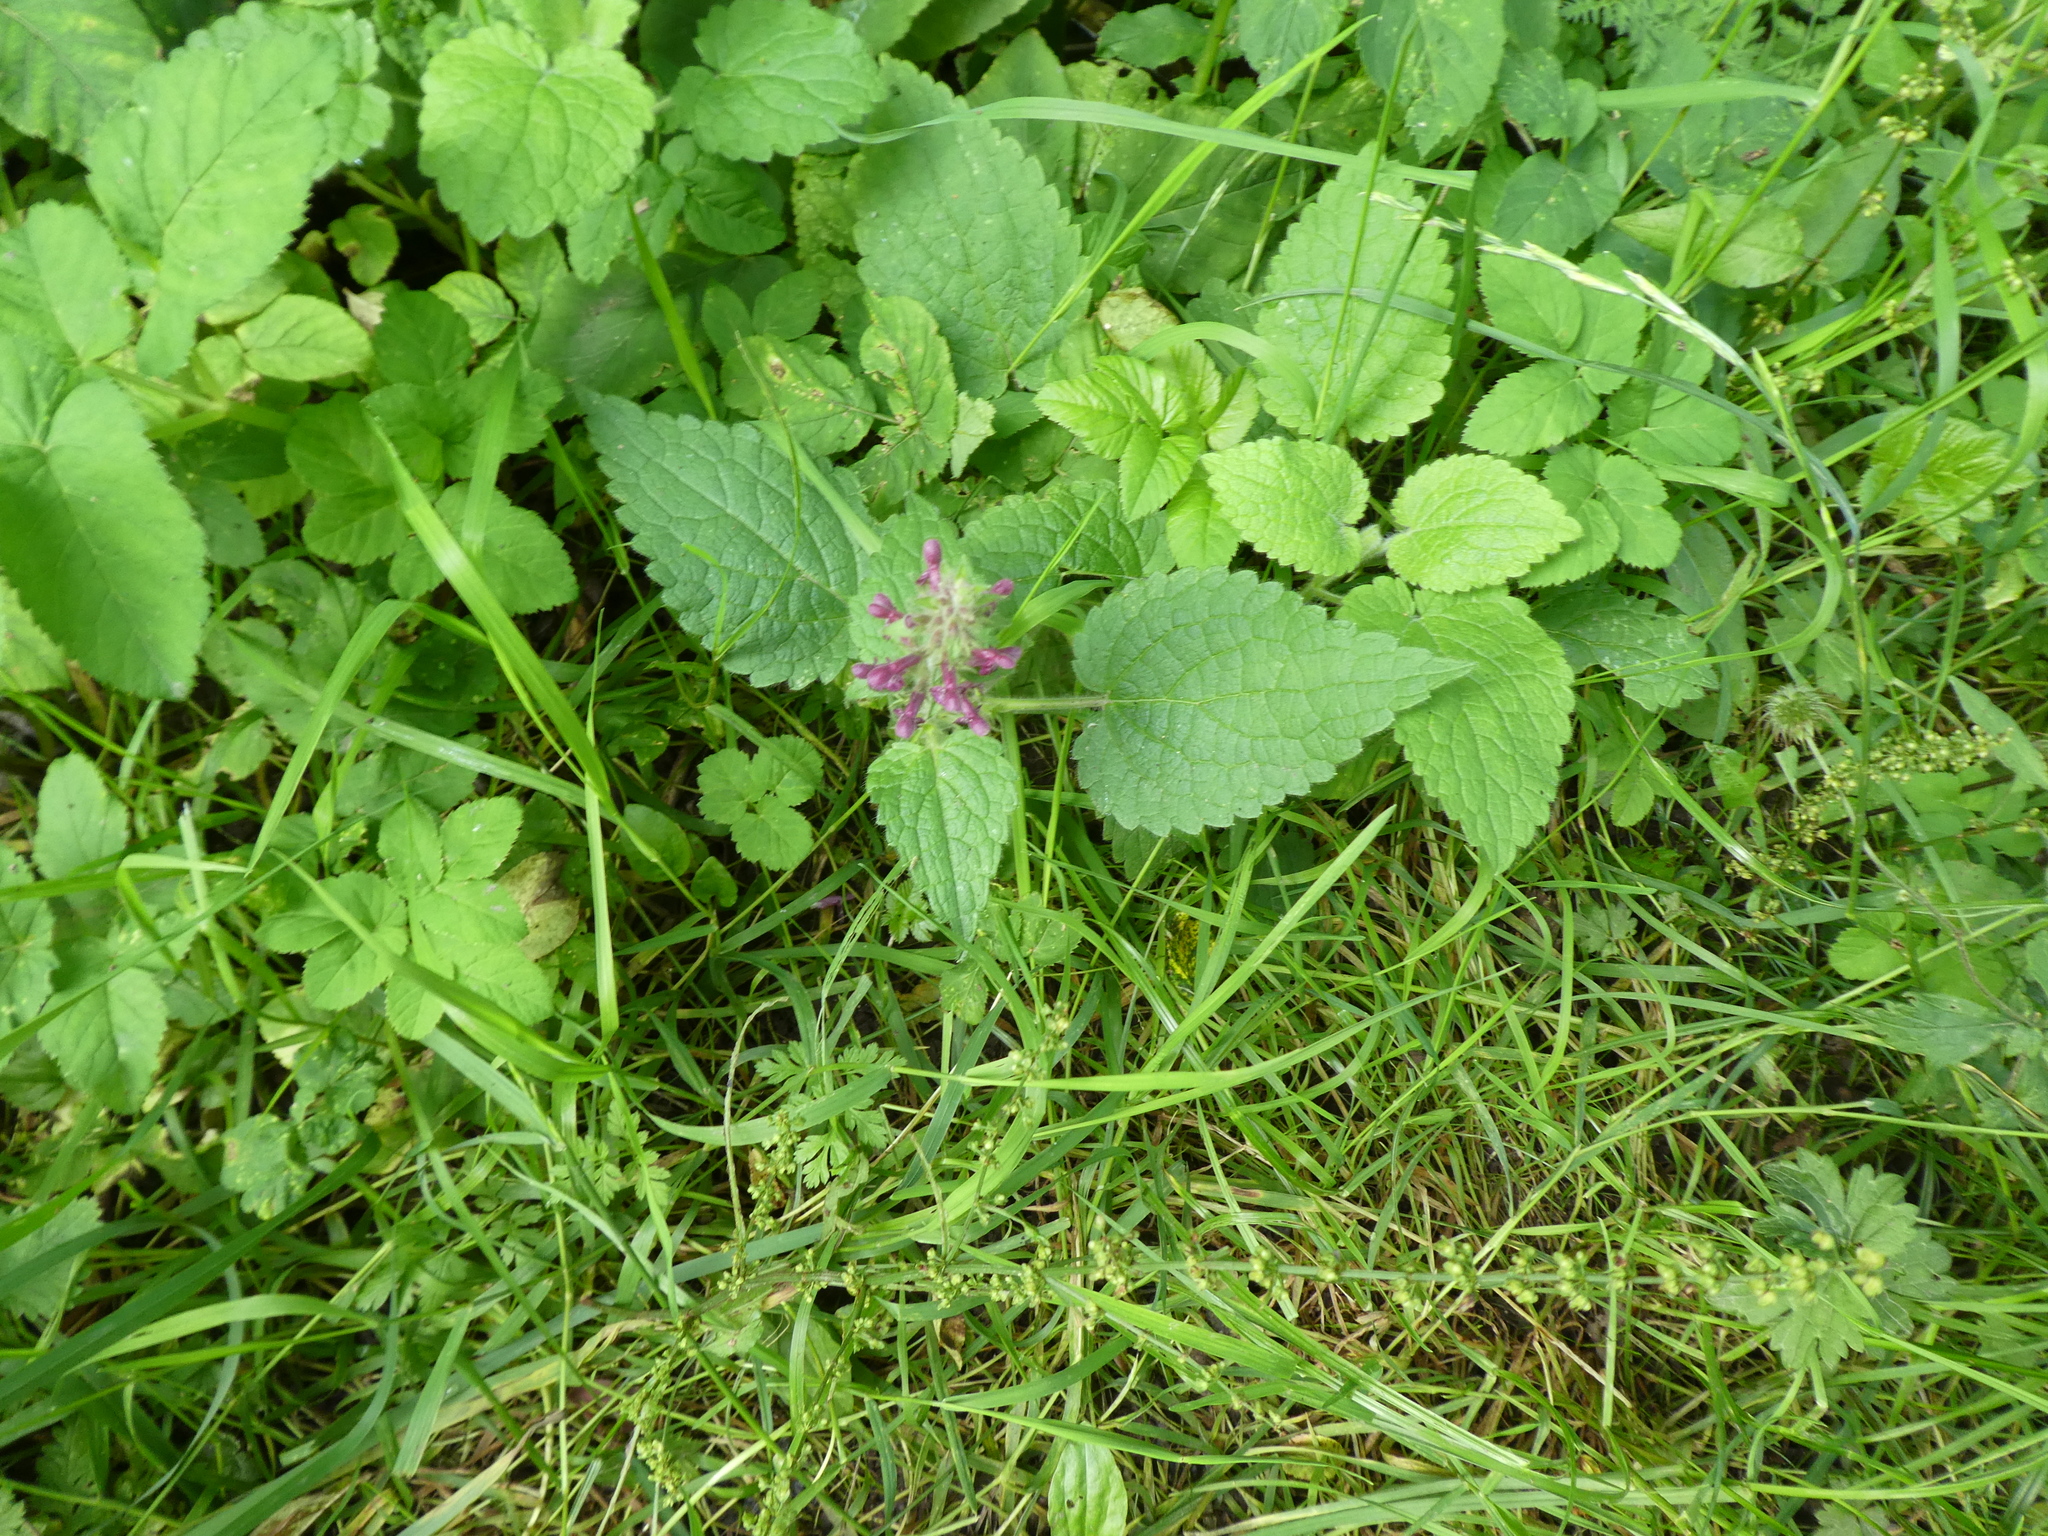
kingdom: Plantae
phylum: Tracheophyta
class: Magnoliopsida
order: Lamiales
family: Lamiaceae
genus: Stachys
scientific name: Stachys sylvatica
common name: Hedge woundwort
